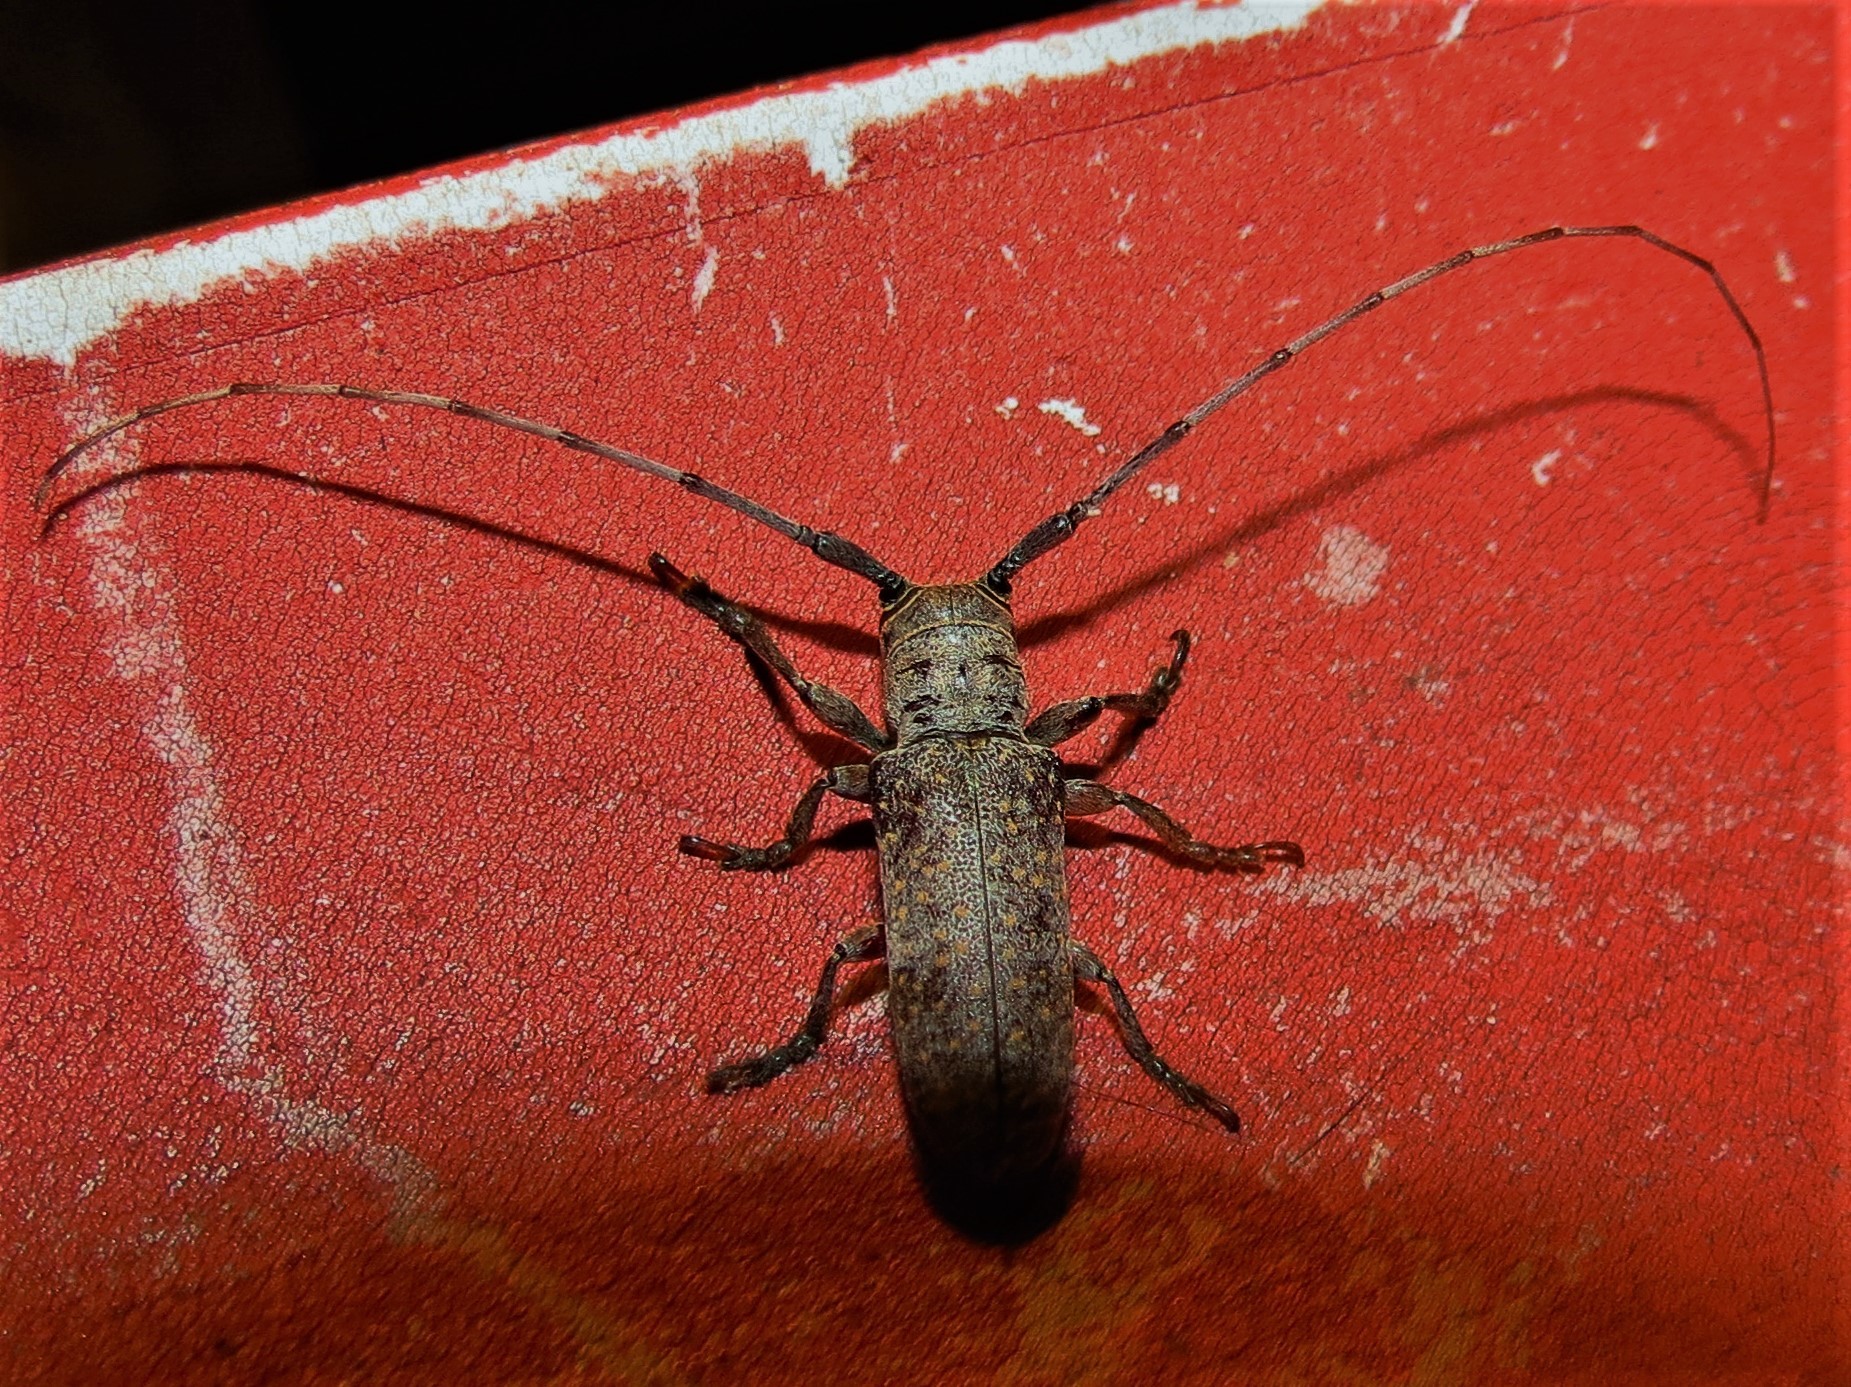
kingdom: Animalia
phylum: Arthropoda
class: Insecta
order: Coleoptera
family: Cerambycidae
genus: Oncideres
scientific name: Oncideres cingulata
